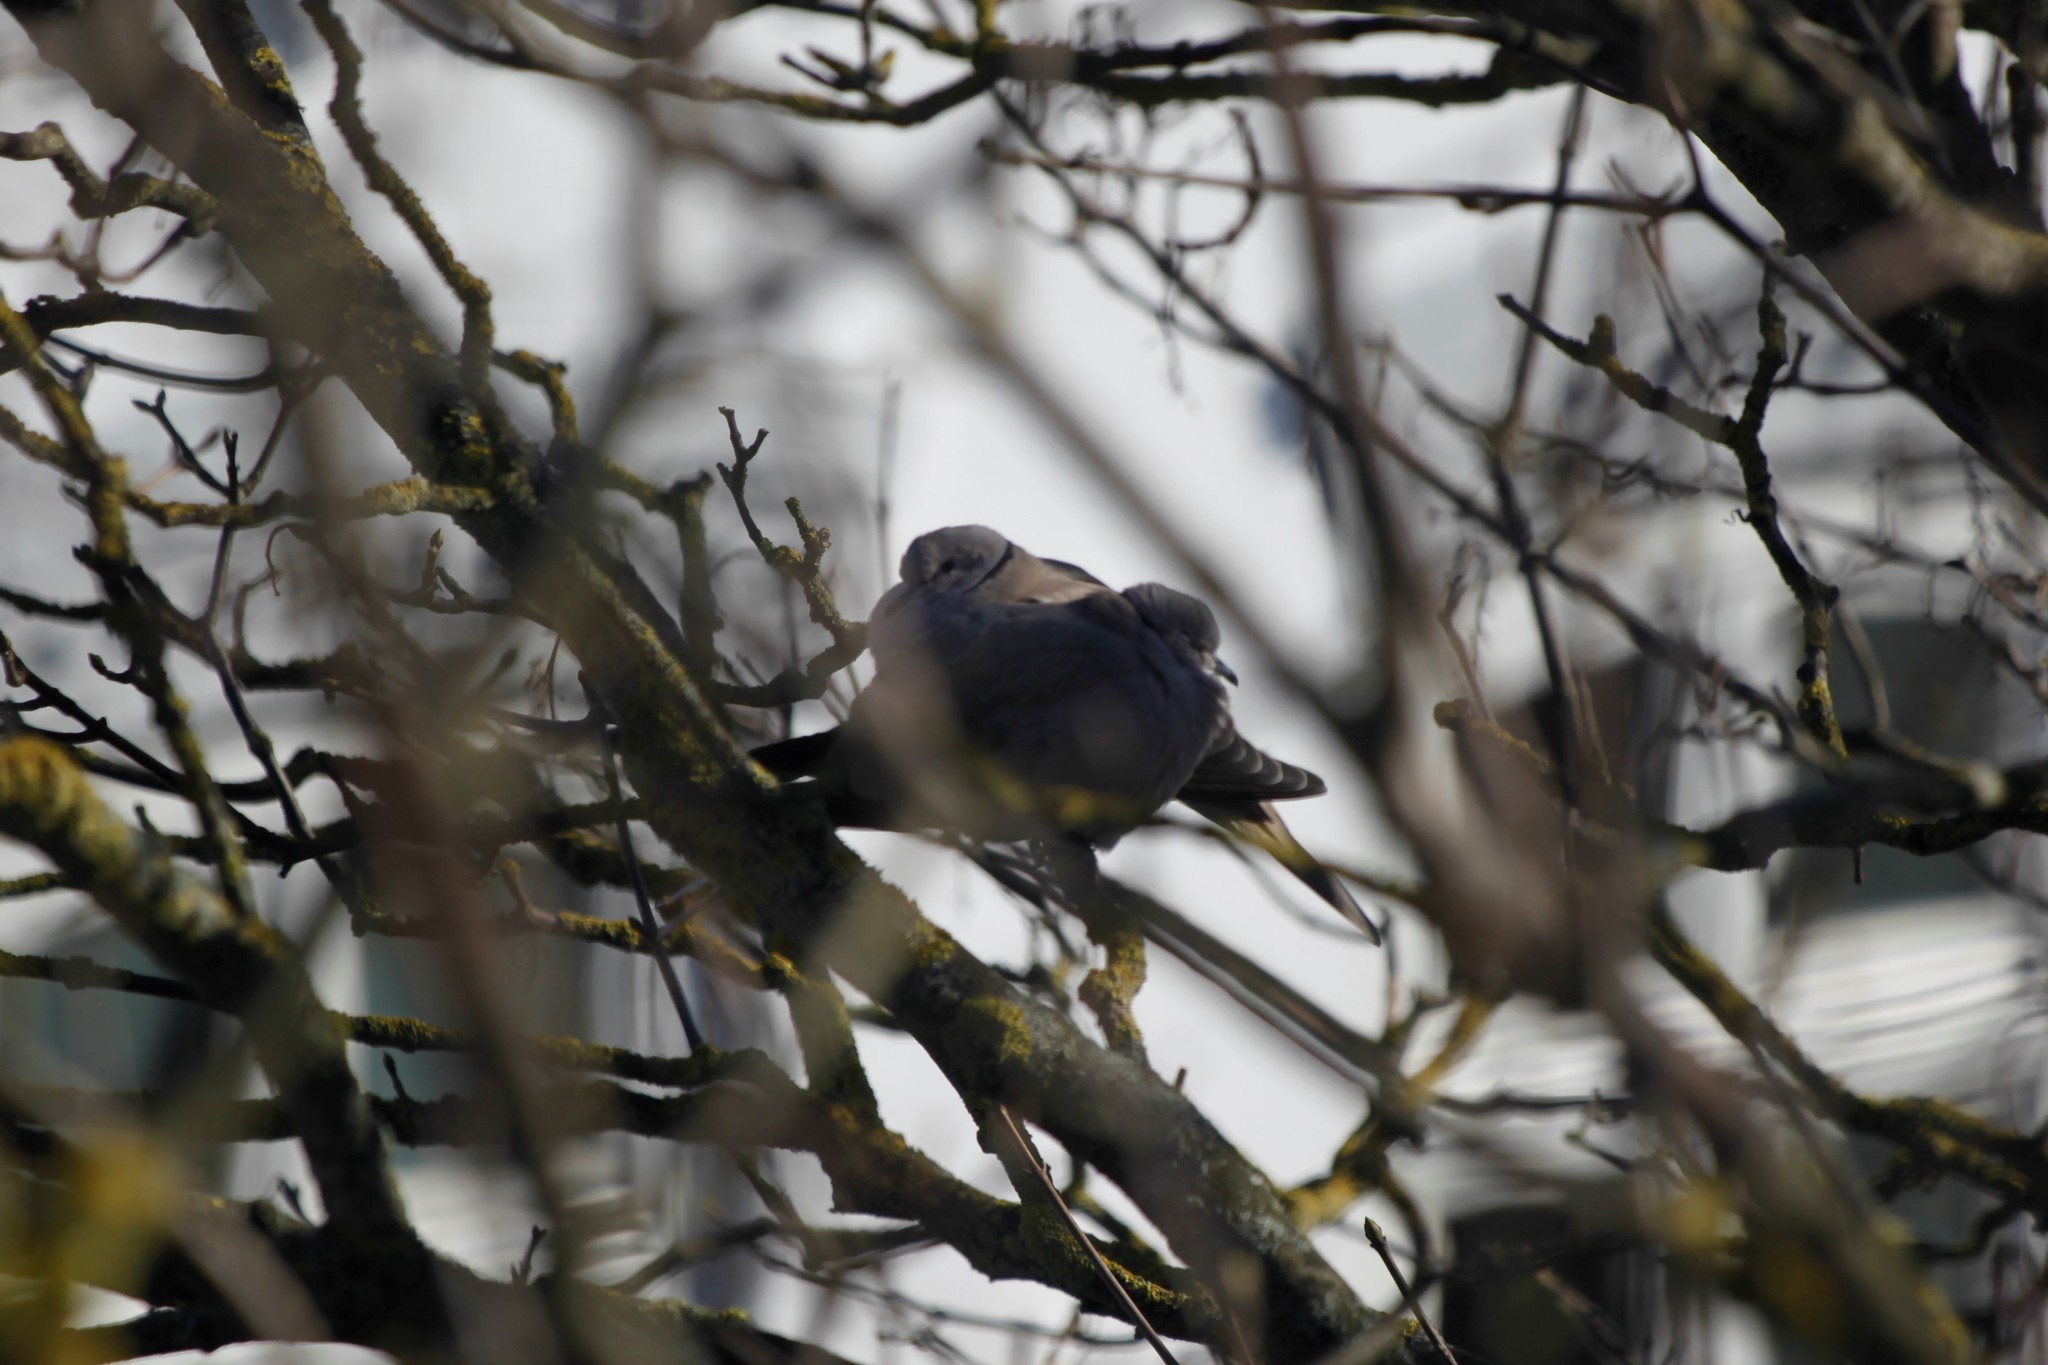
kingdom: Animalia
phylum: Chordata
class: Aves
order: Columbiformes
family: Columbidae
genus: Streptopelia
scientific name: Streptopelia decaocto
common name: Eurasian collared dove
